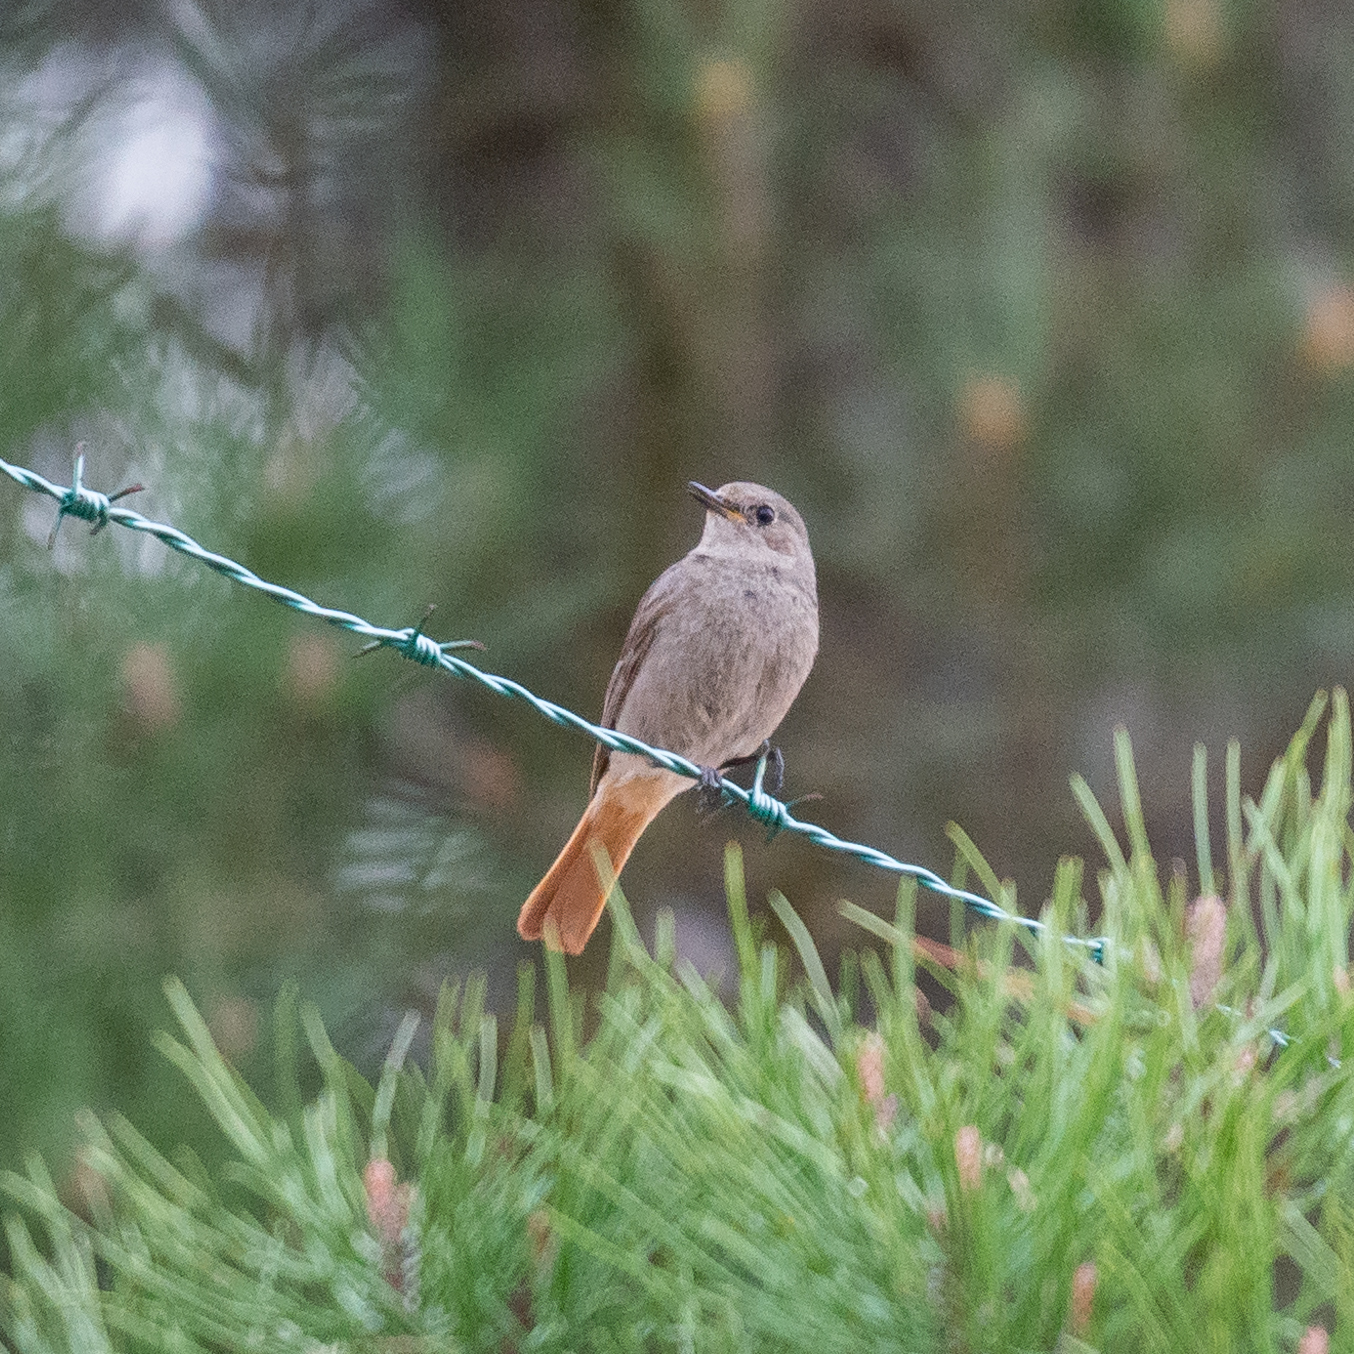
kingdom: Animalia
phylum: Chordata
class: Aves
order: Passeriformes
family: Muscicapidae
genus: Phoenicurus
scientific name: Phoenicurus ochruros
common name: Black redstart
